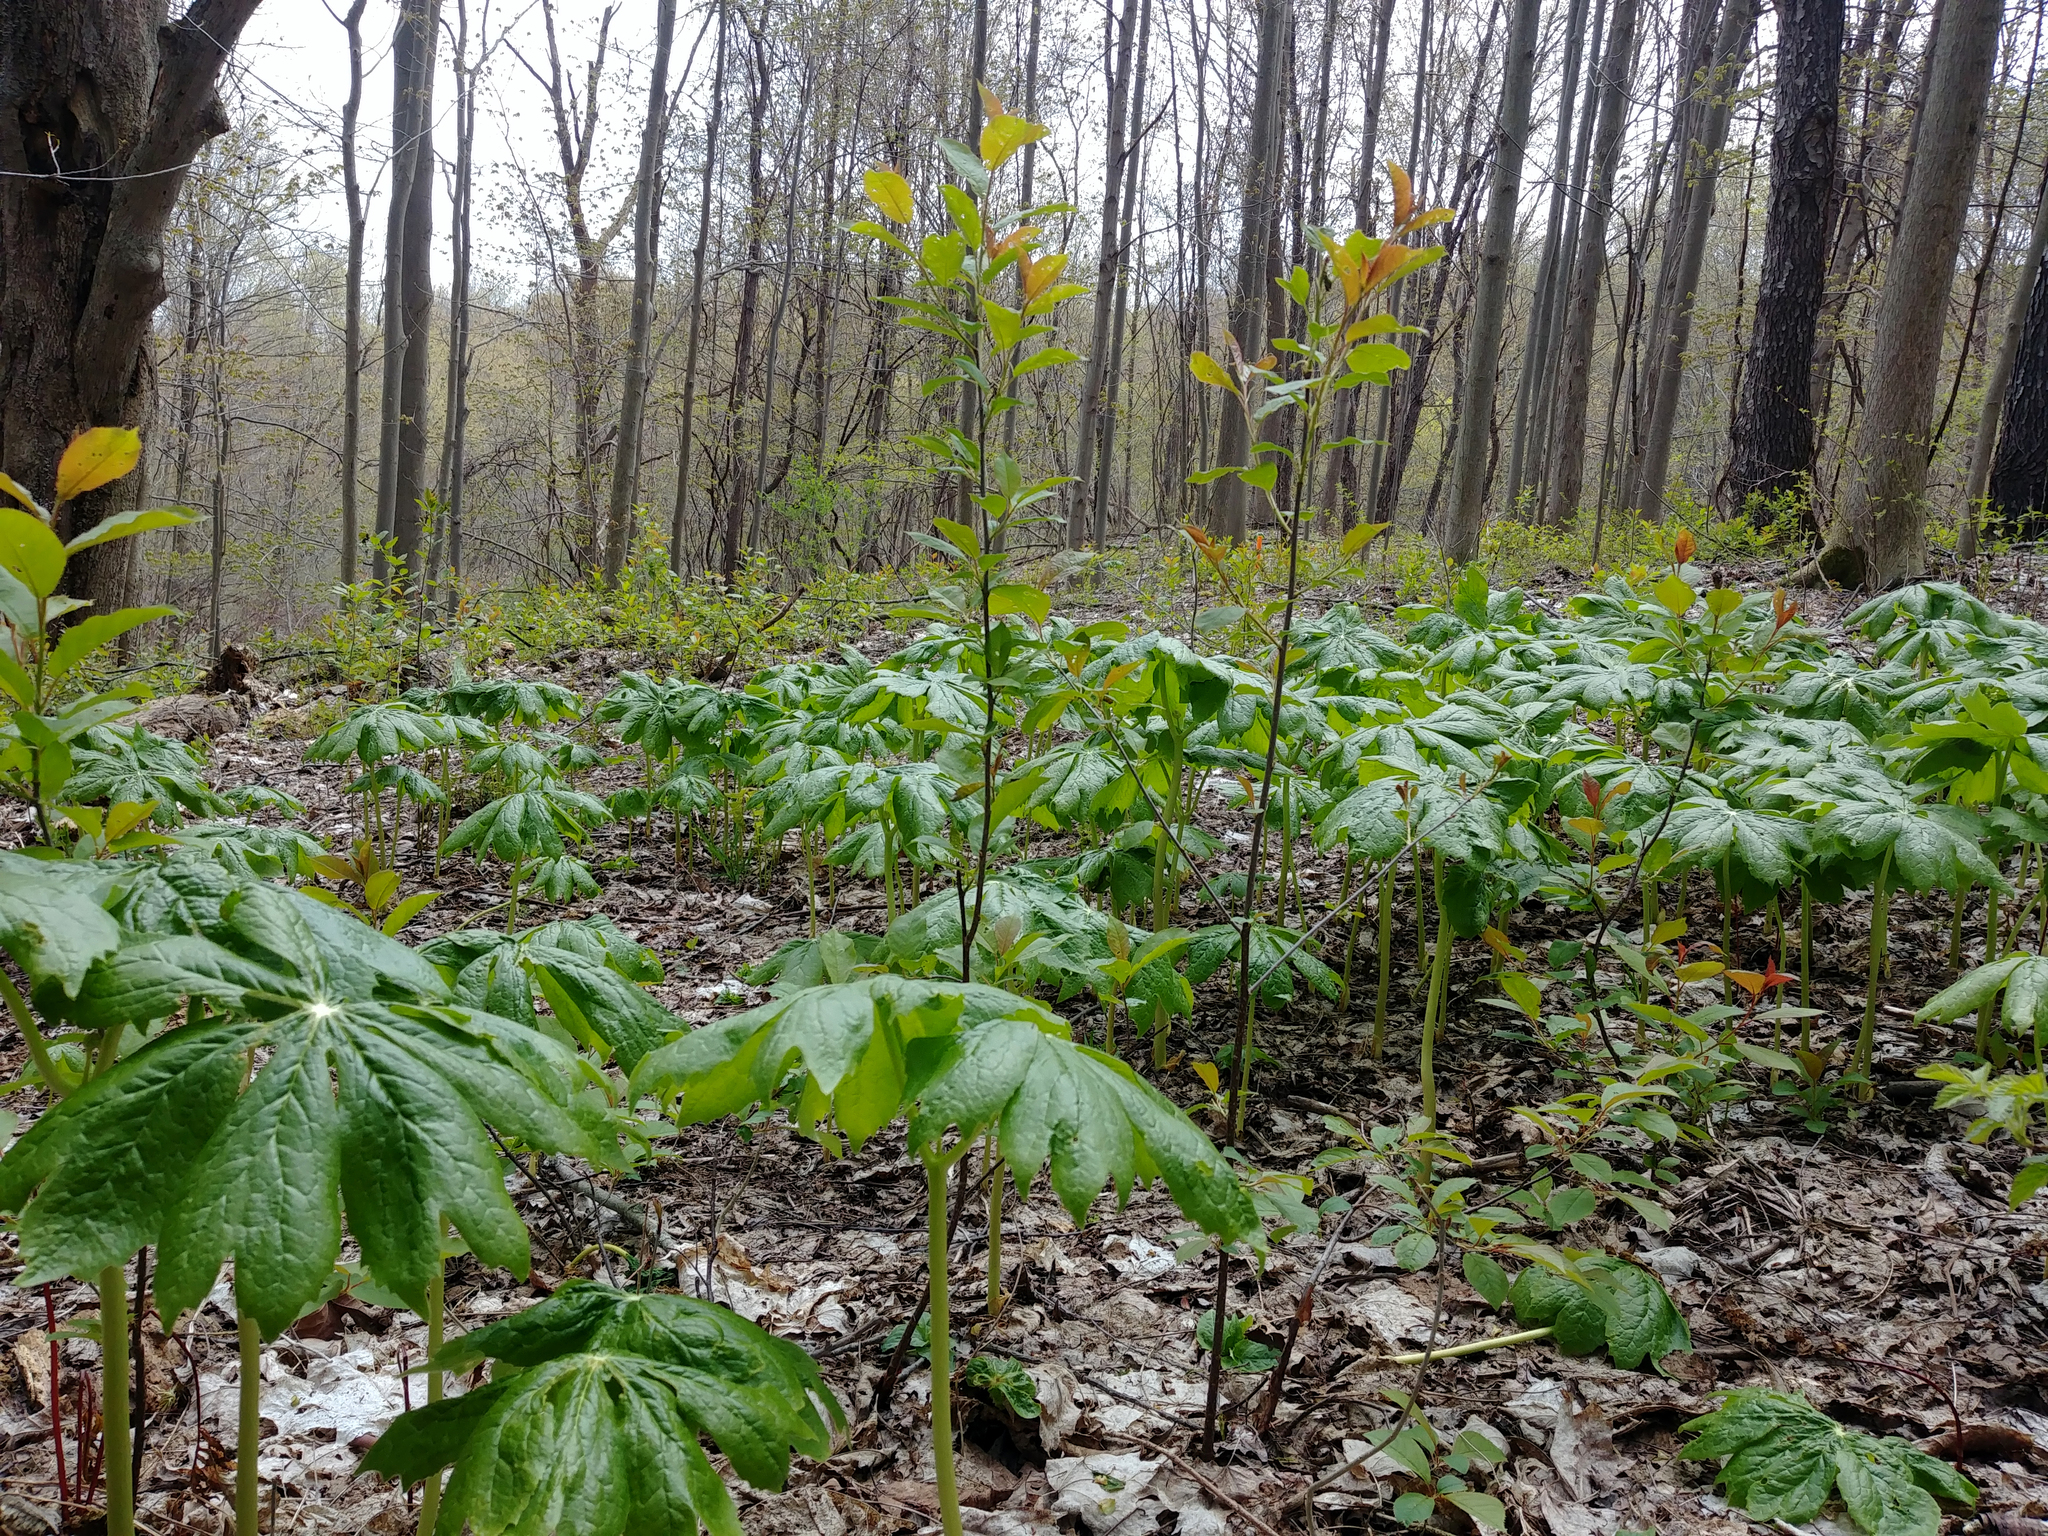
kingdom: Plantae
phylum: Tracheophyta
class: Magnoliopsida
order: Ranunculales
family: Berberidaceae
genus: Podophyllum
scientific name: Podophyllum peltatum
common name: Wild mandrake
